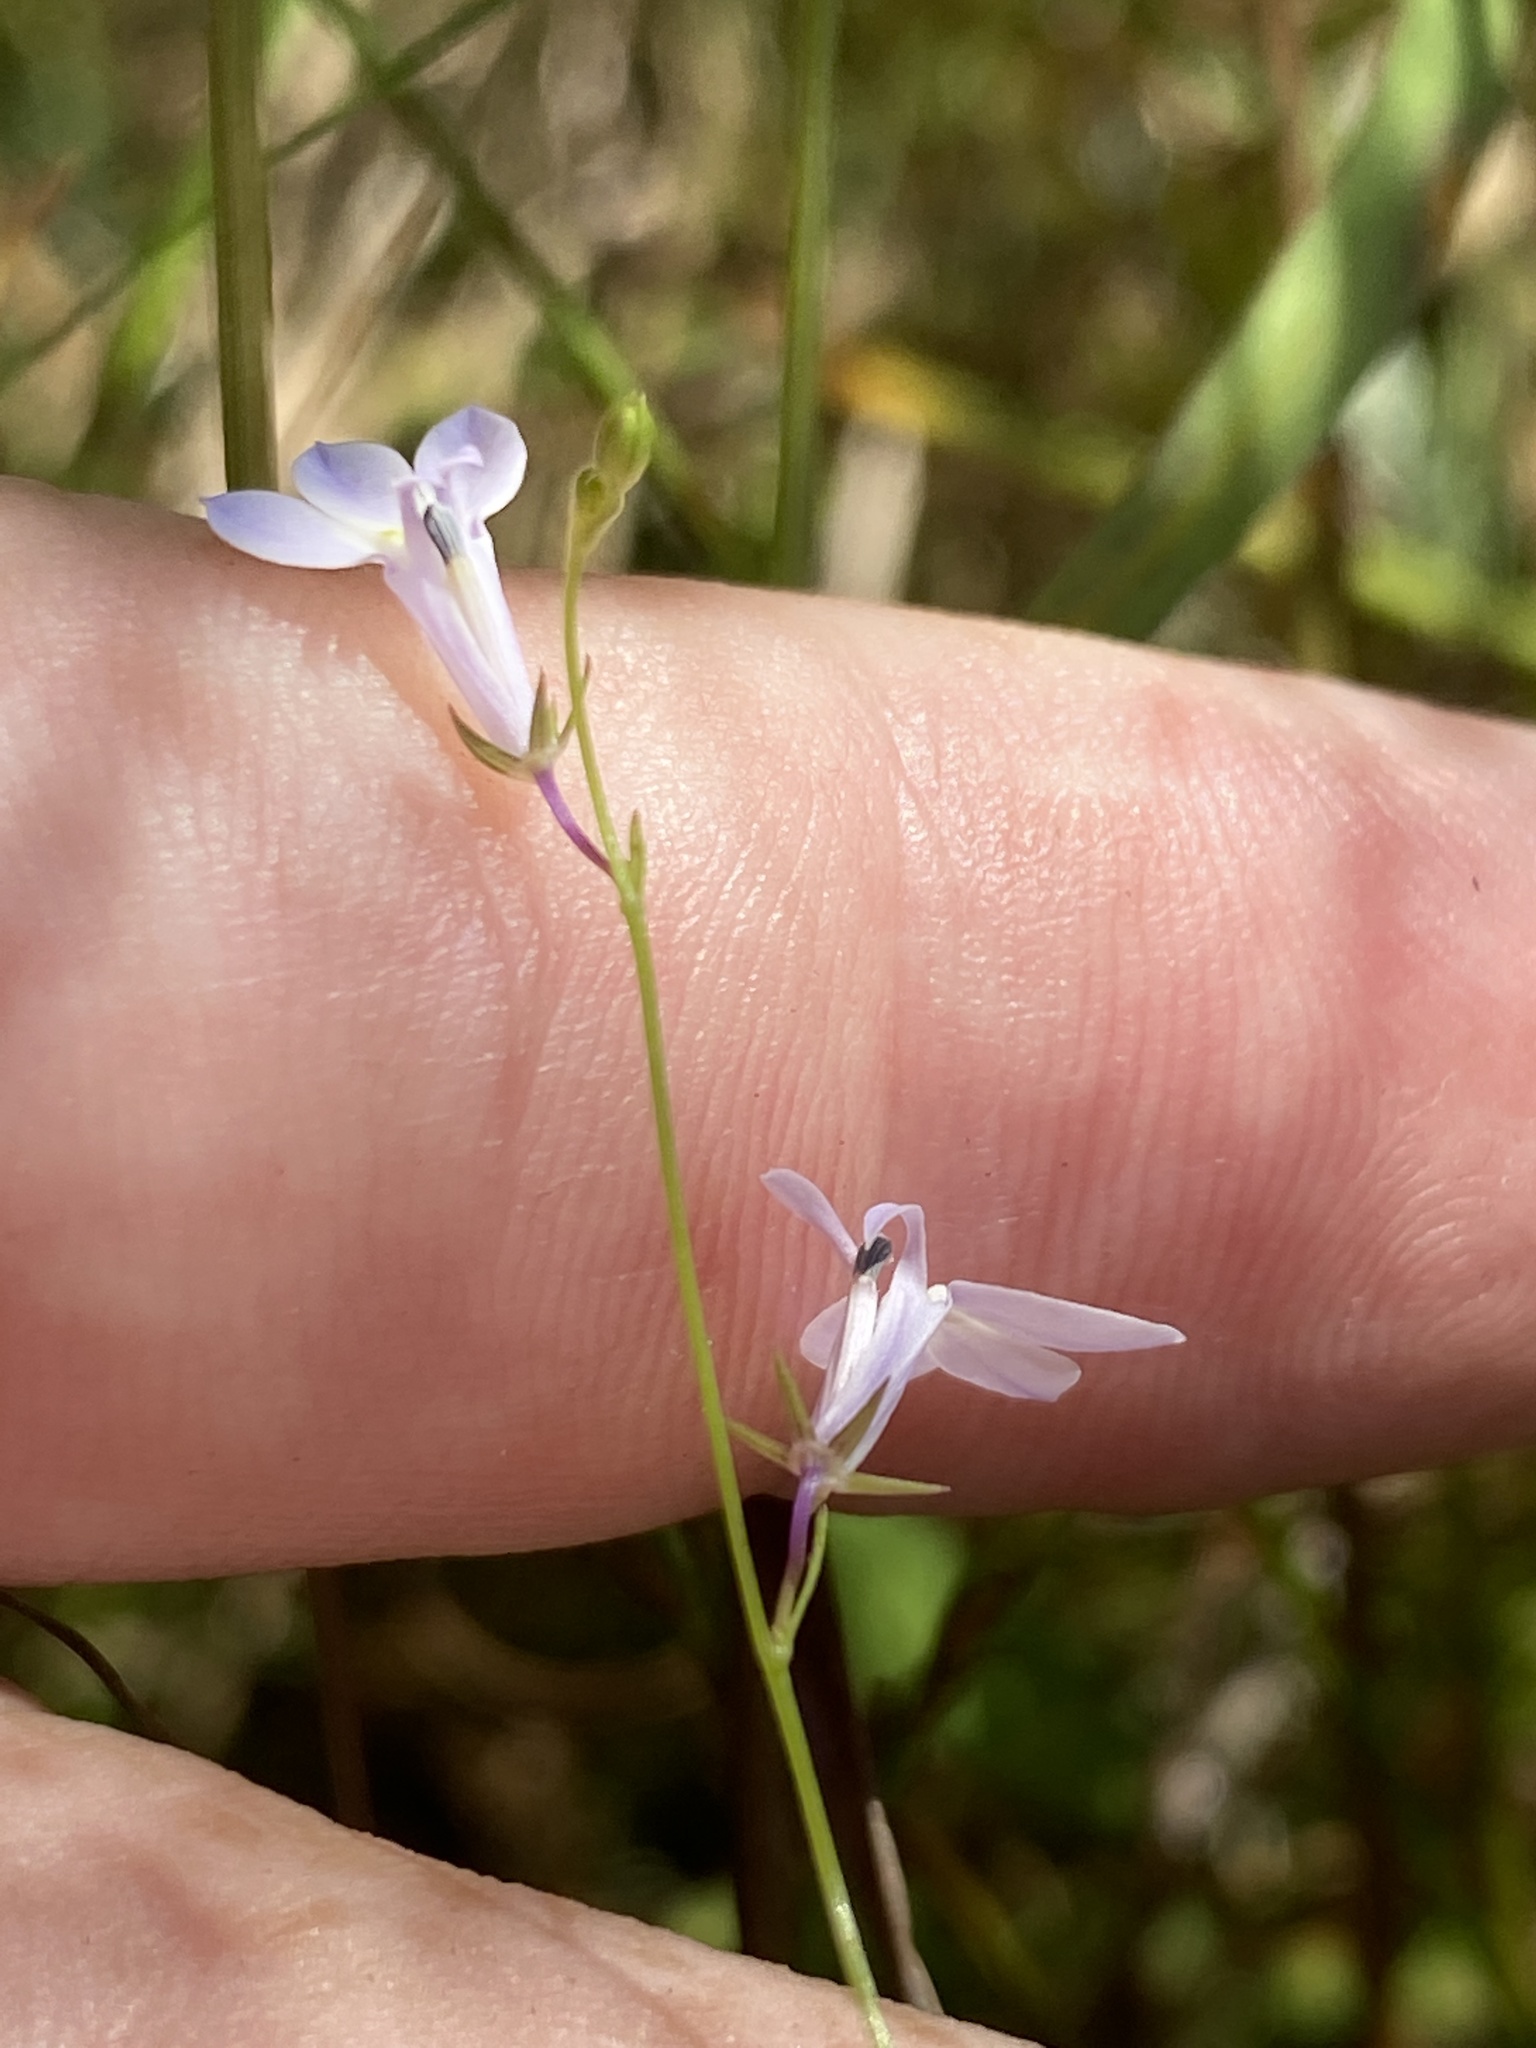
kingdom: Plantae
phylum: Tracheophyta
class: Magnoliopsida
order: Asterales
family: Campanulaceae
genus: Lobelia
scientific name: Lobelia nuttallii
